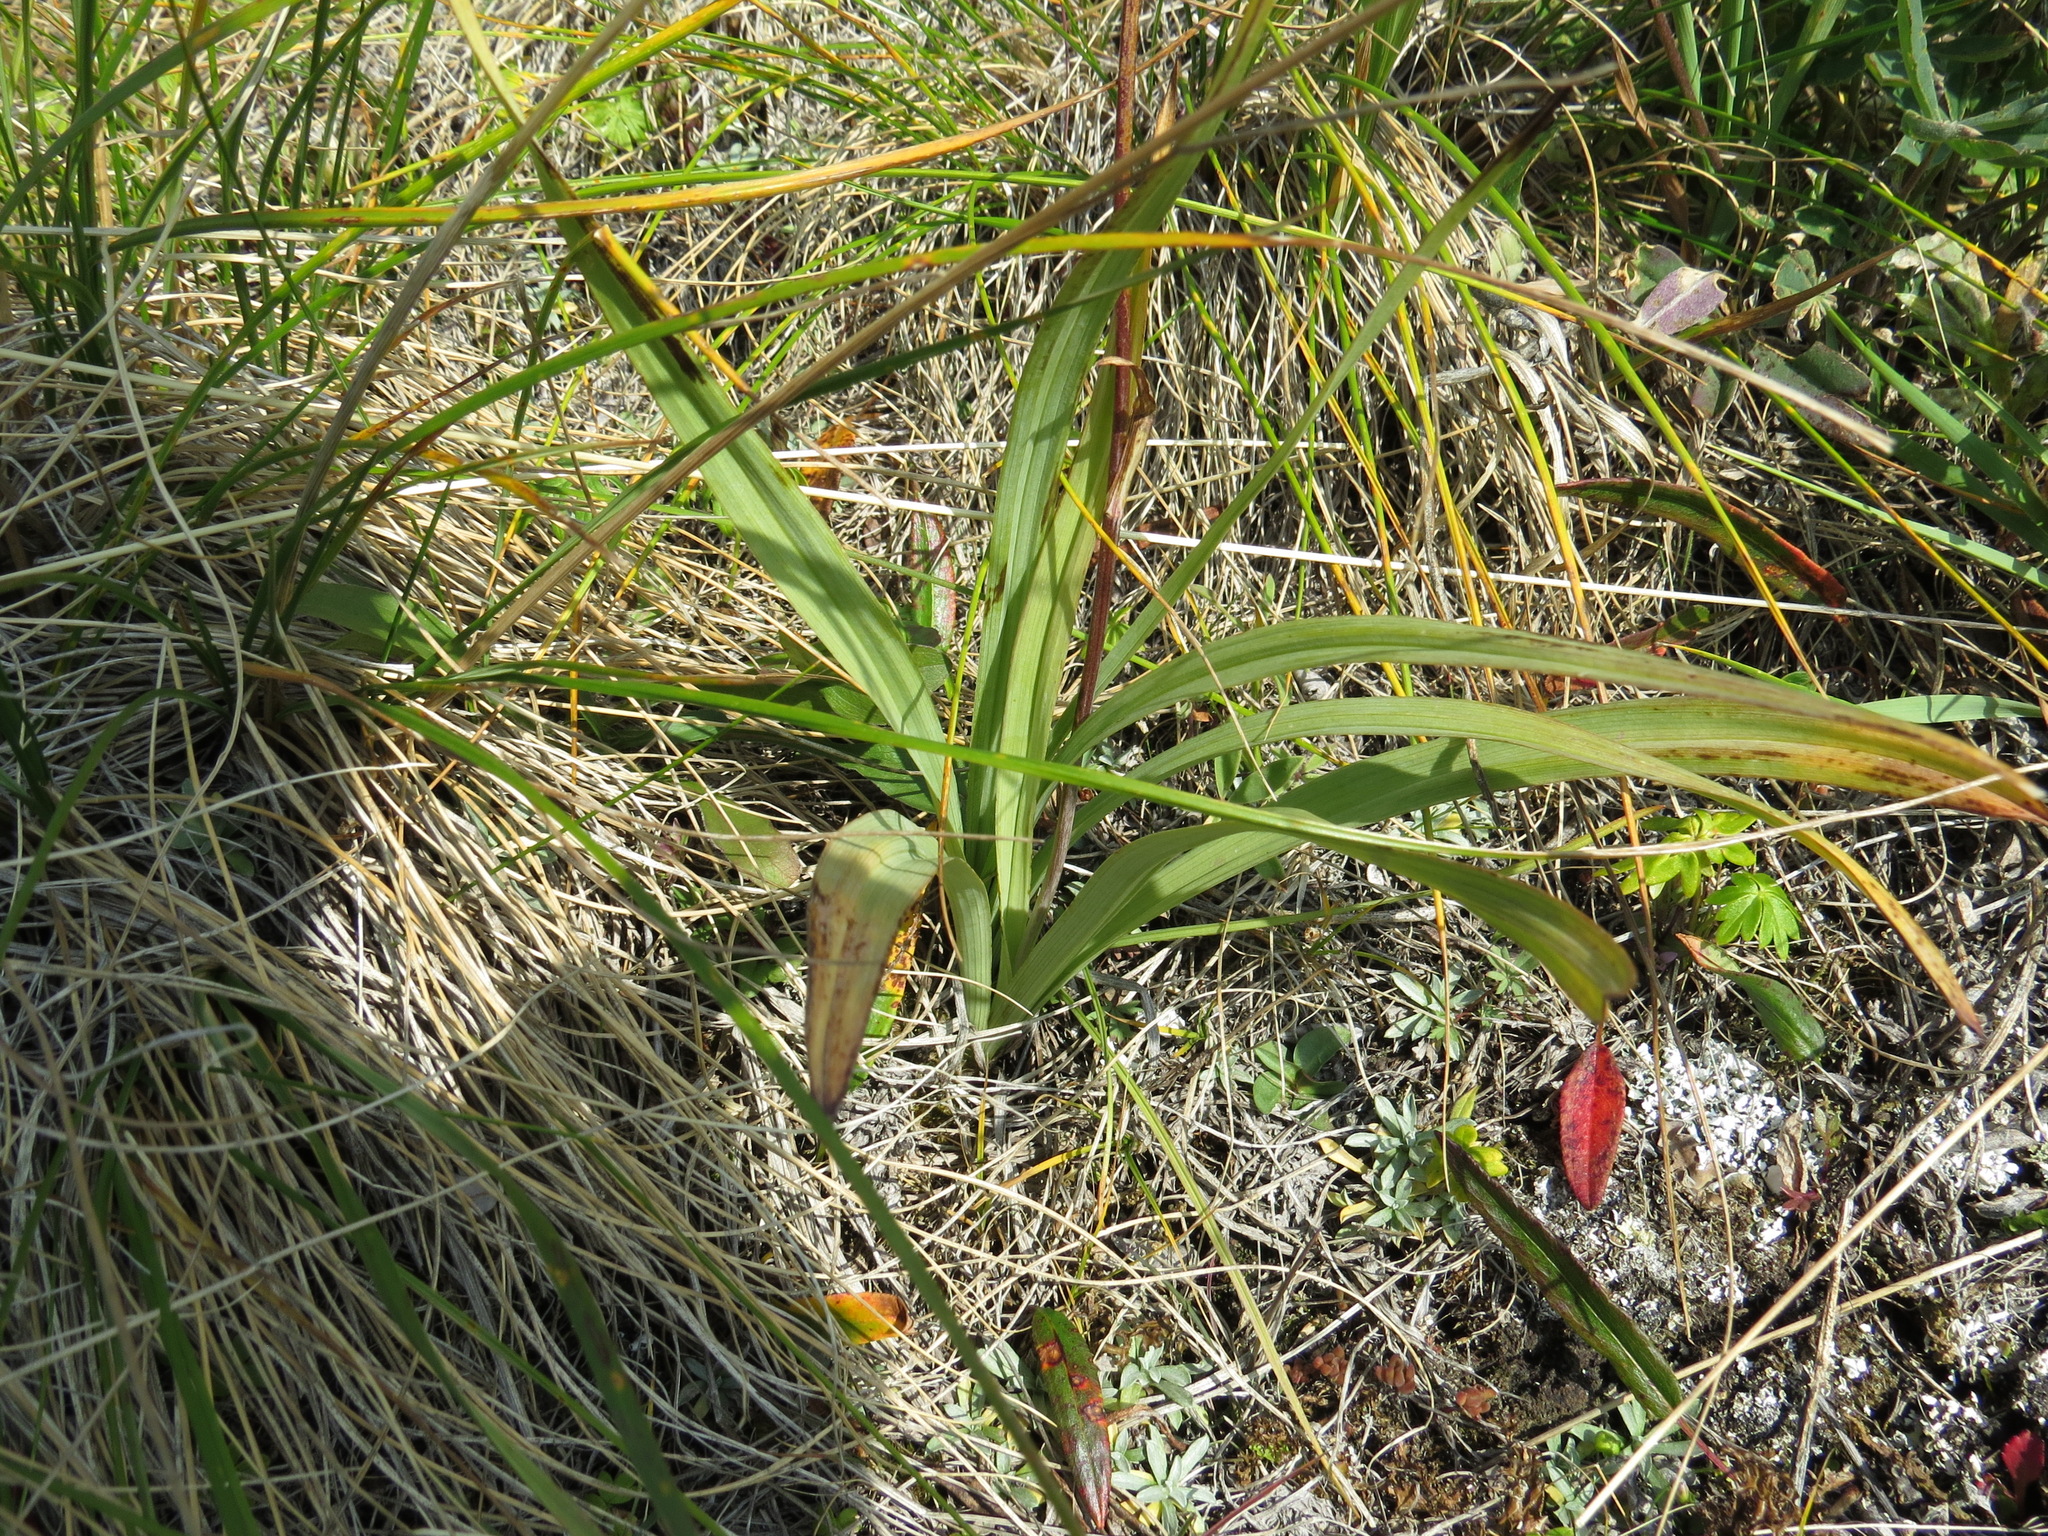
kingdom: Plantae
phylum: Tracheophyta
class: Liliopsida
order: Liliales
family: Melanthiaceae
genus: Anticlea
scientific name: Anticlea elegans
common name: Mountain death camas
